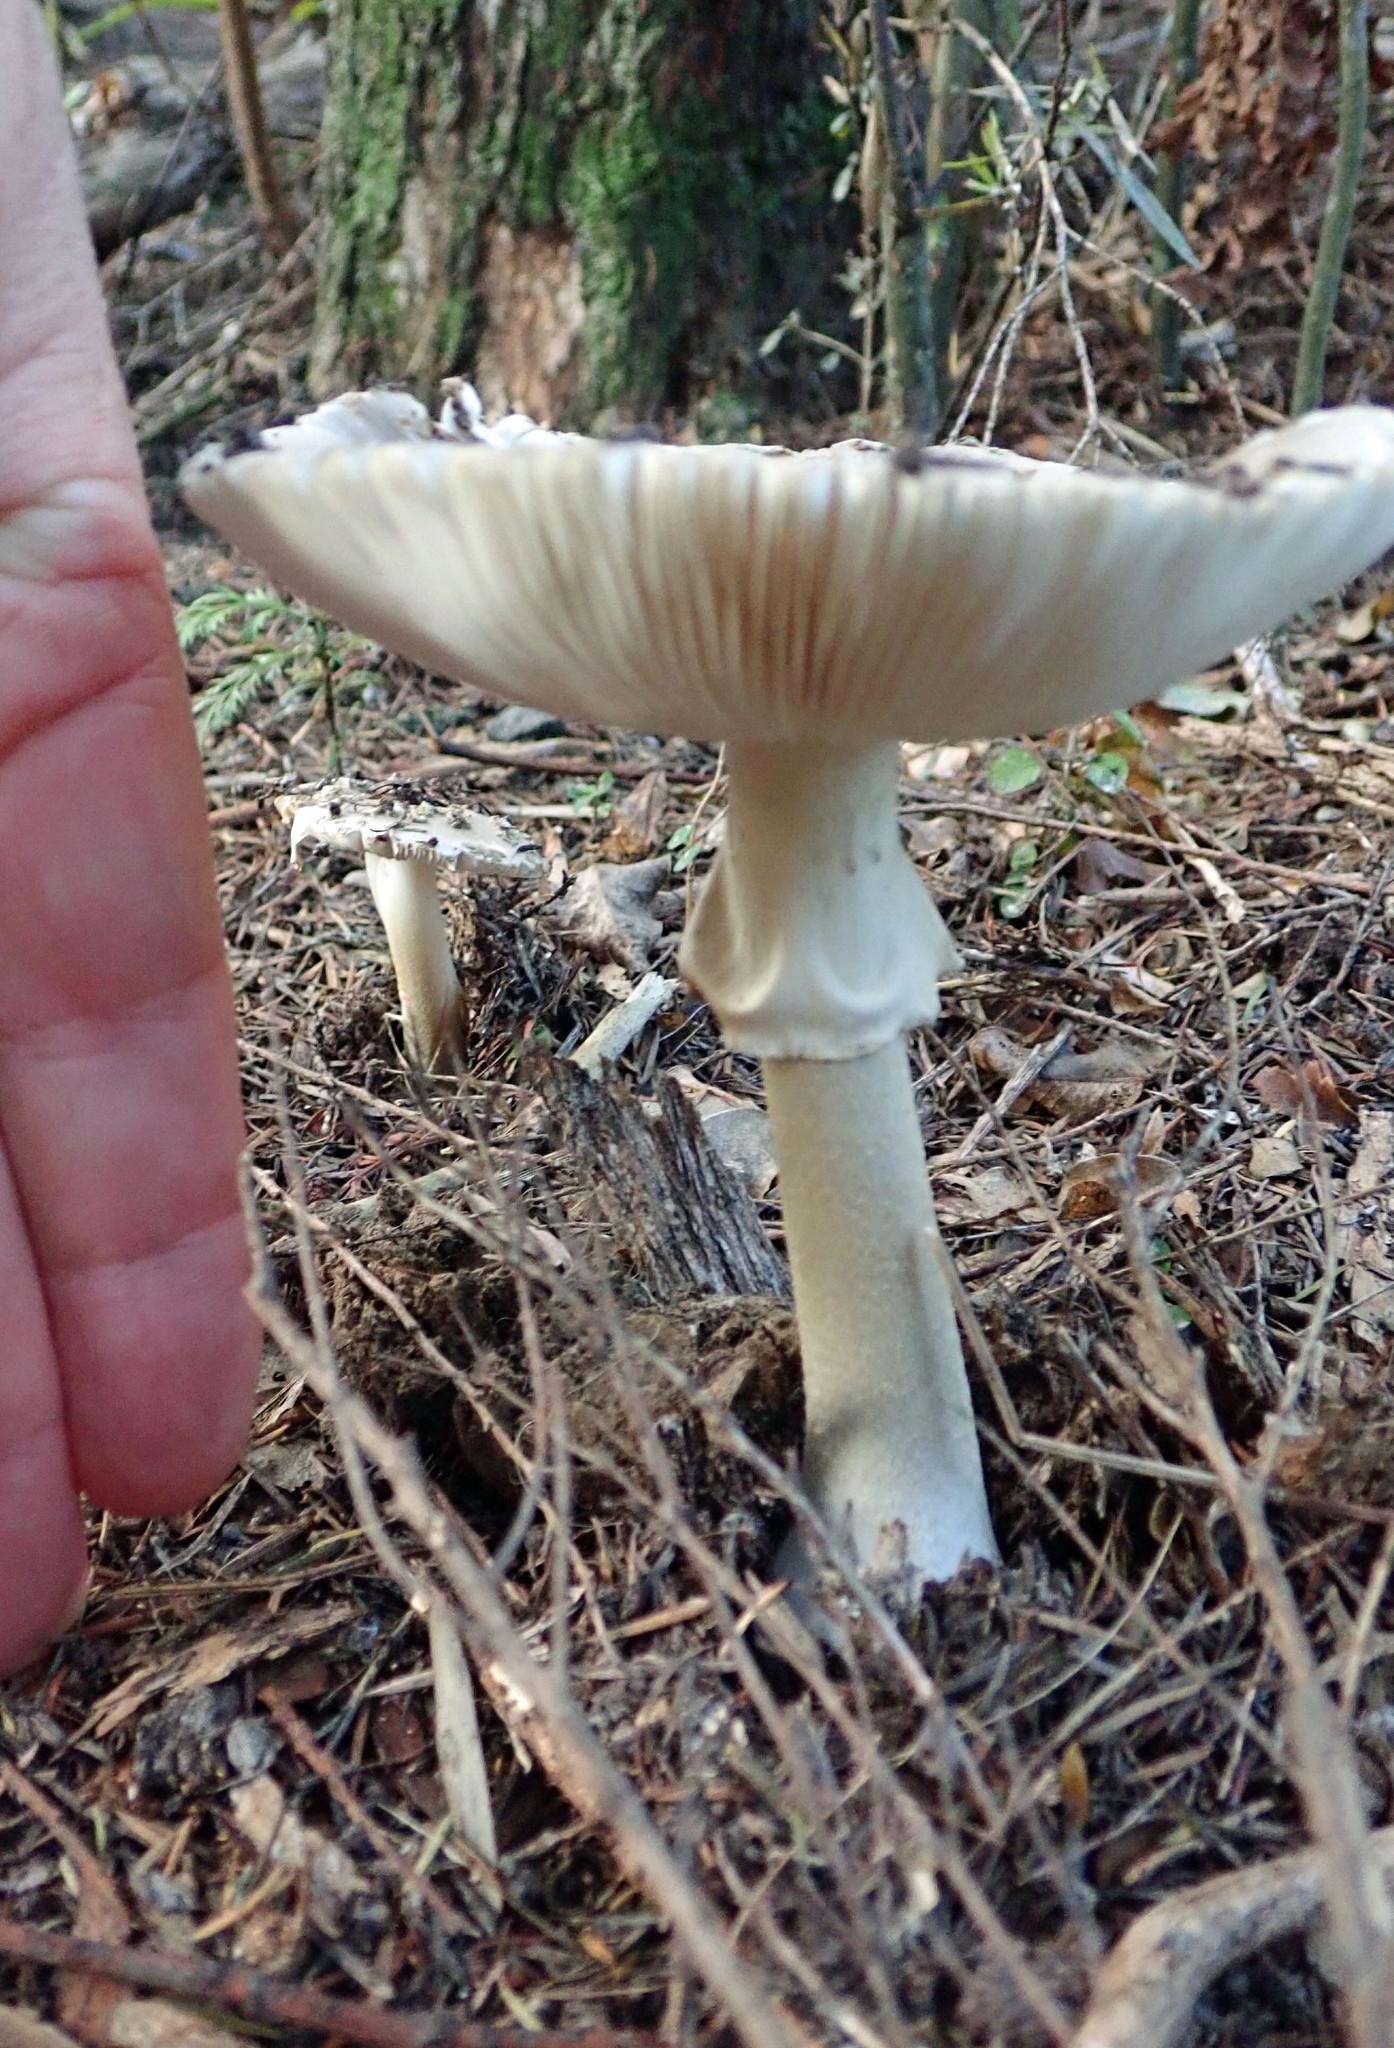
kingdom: Fungi
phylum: Basidiomycota
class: Agaricomycetes
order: Agaricales
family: Amanitaceae
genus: Amanita
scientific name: Amanita nothofagi
